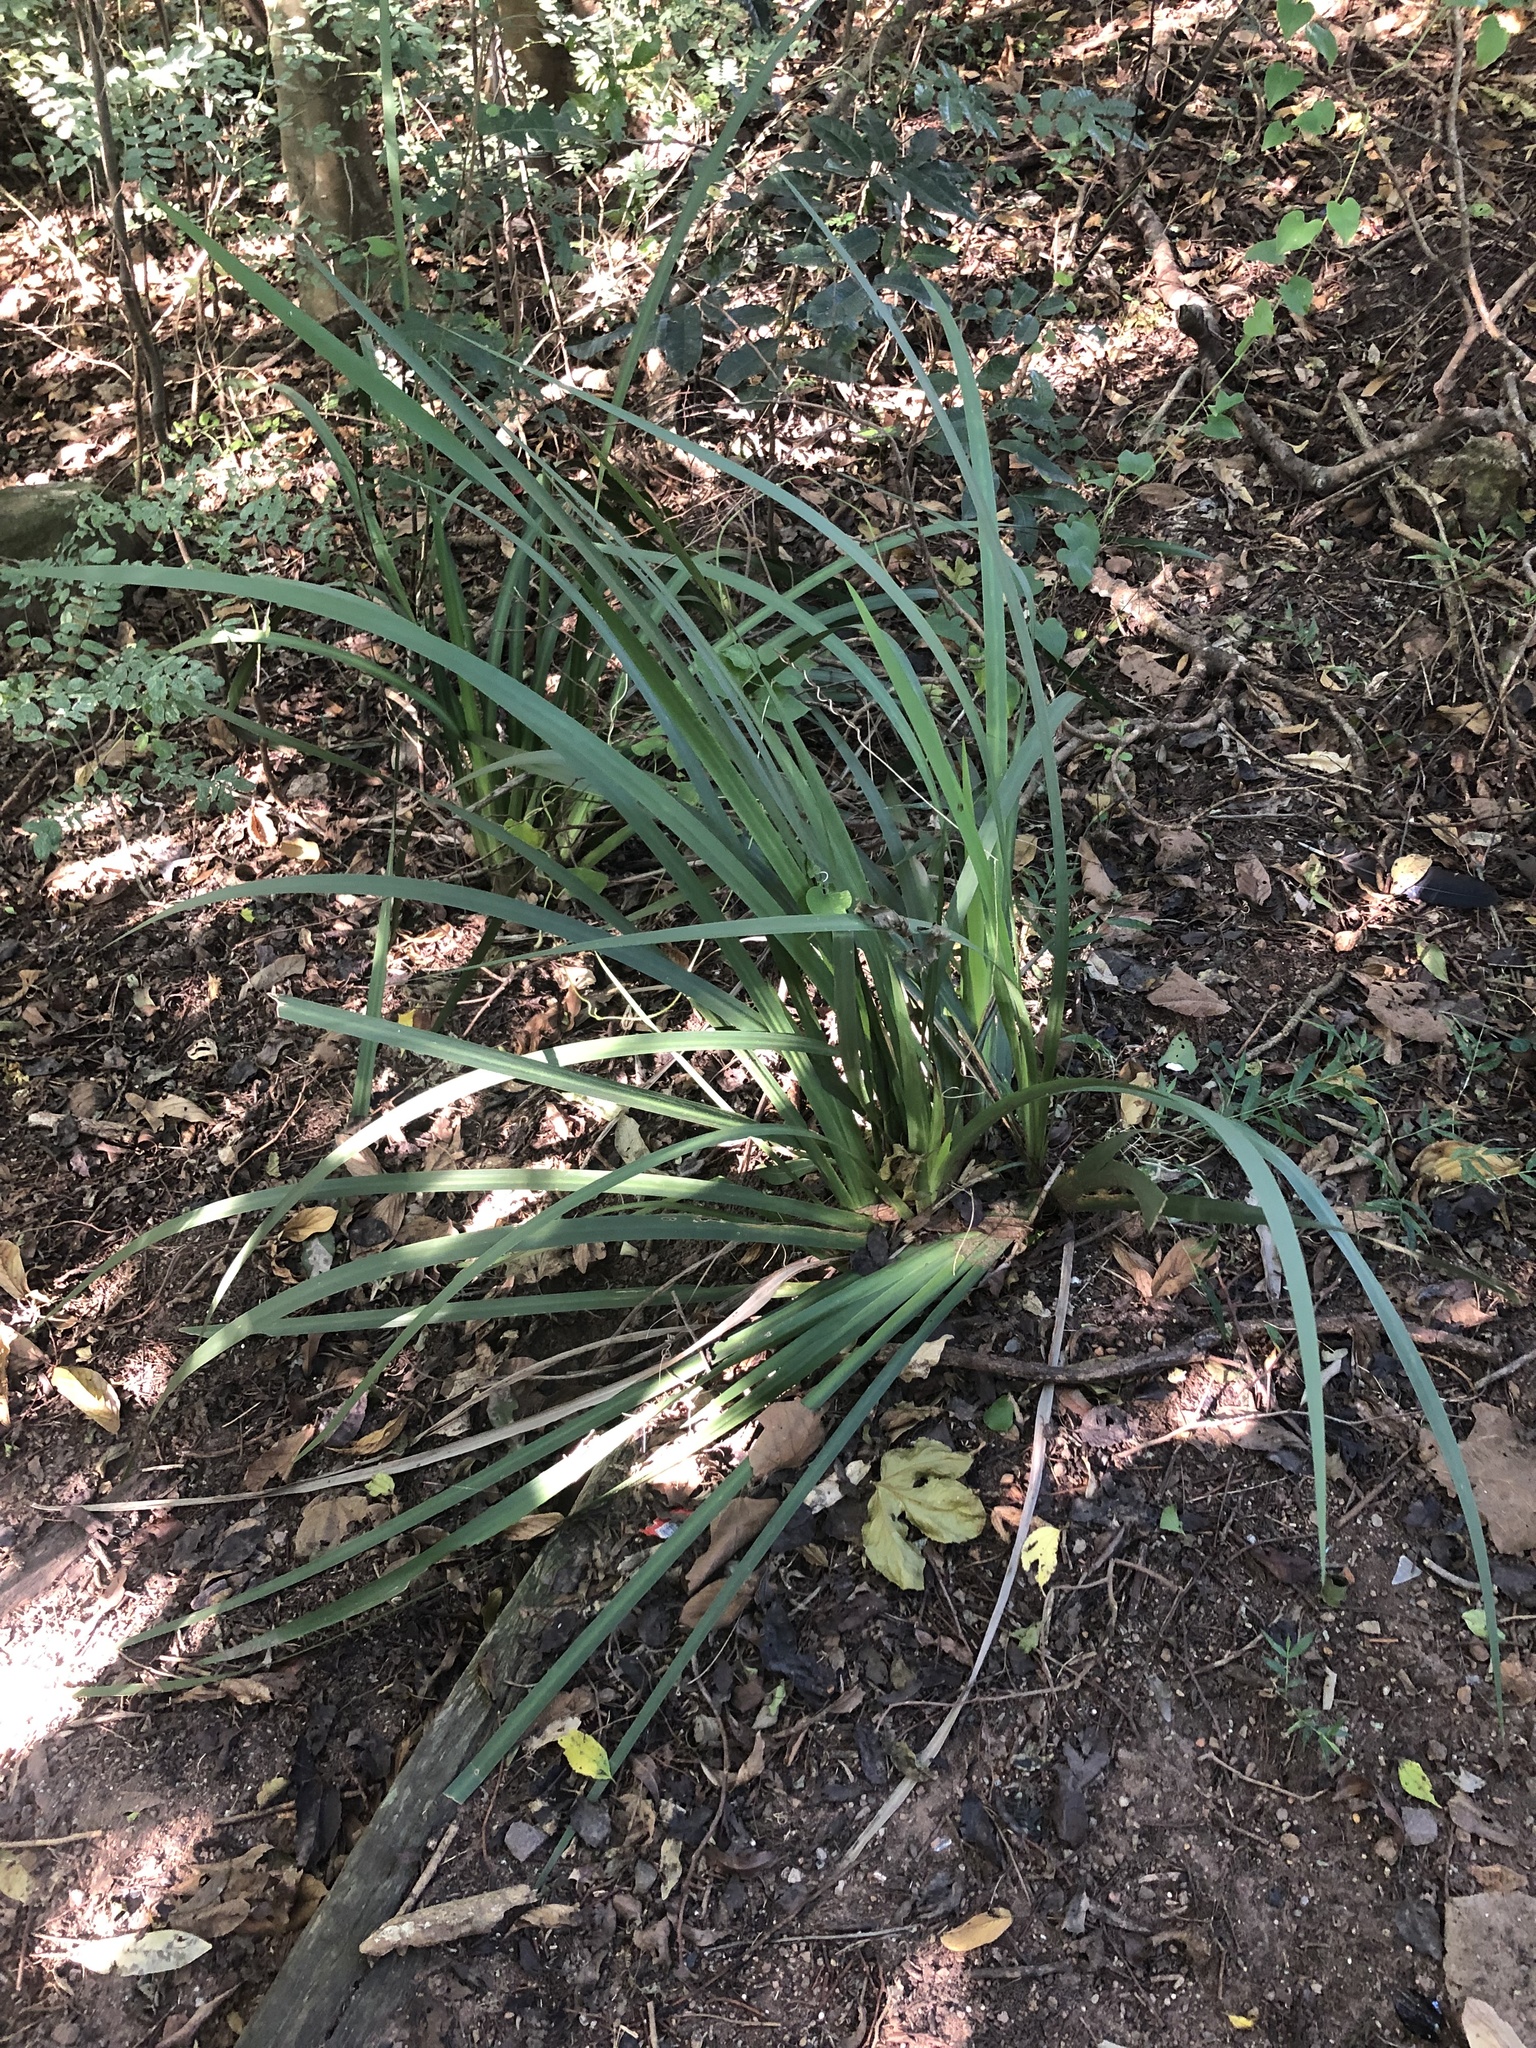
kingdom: Plantae
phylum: Tracheophyta
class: Liliopsida
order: Asparagales
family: Iridaceae
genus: Dietes
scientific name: Dietes iridioides
